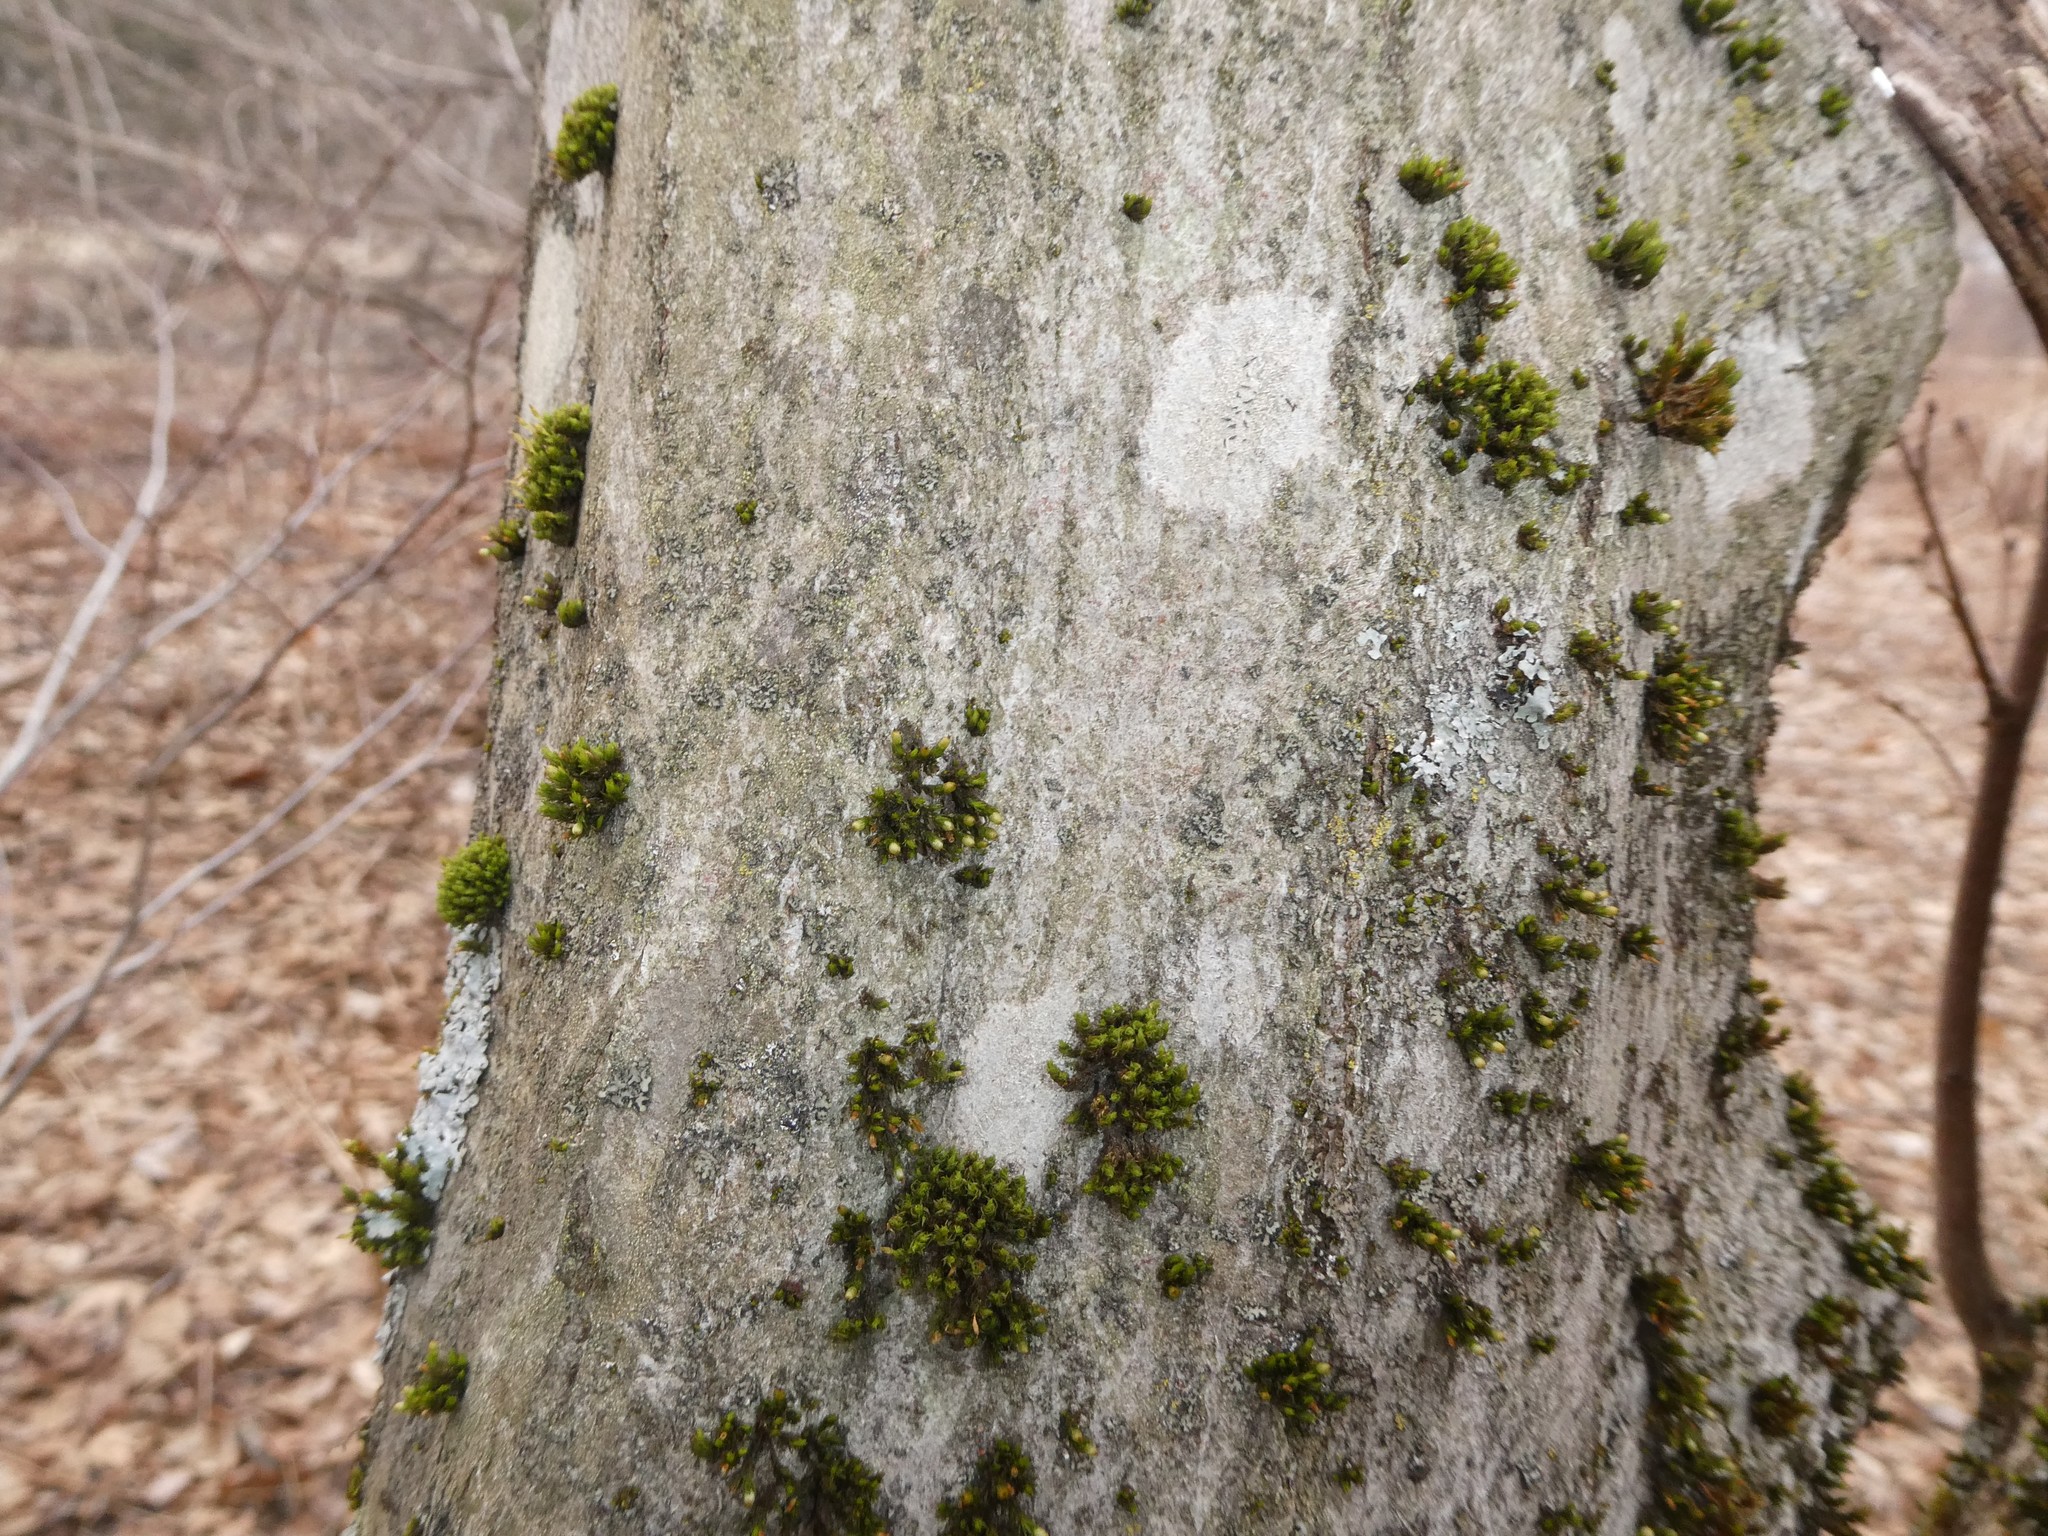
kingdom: Plantae
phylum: Tracheophyta
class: Magnoliopsida
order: Fagales
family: Betulaceae
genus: Carpinus
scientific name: Carpinus caroliniana
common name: American hornbeam
